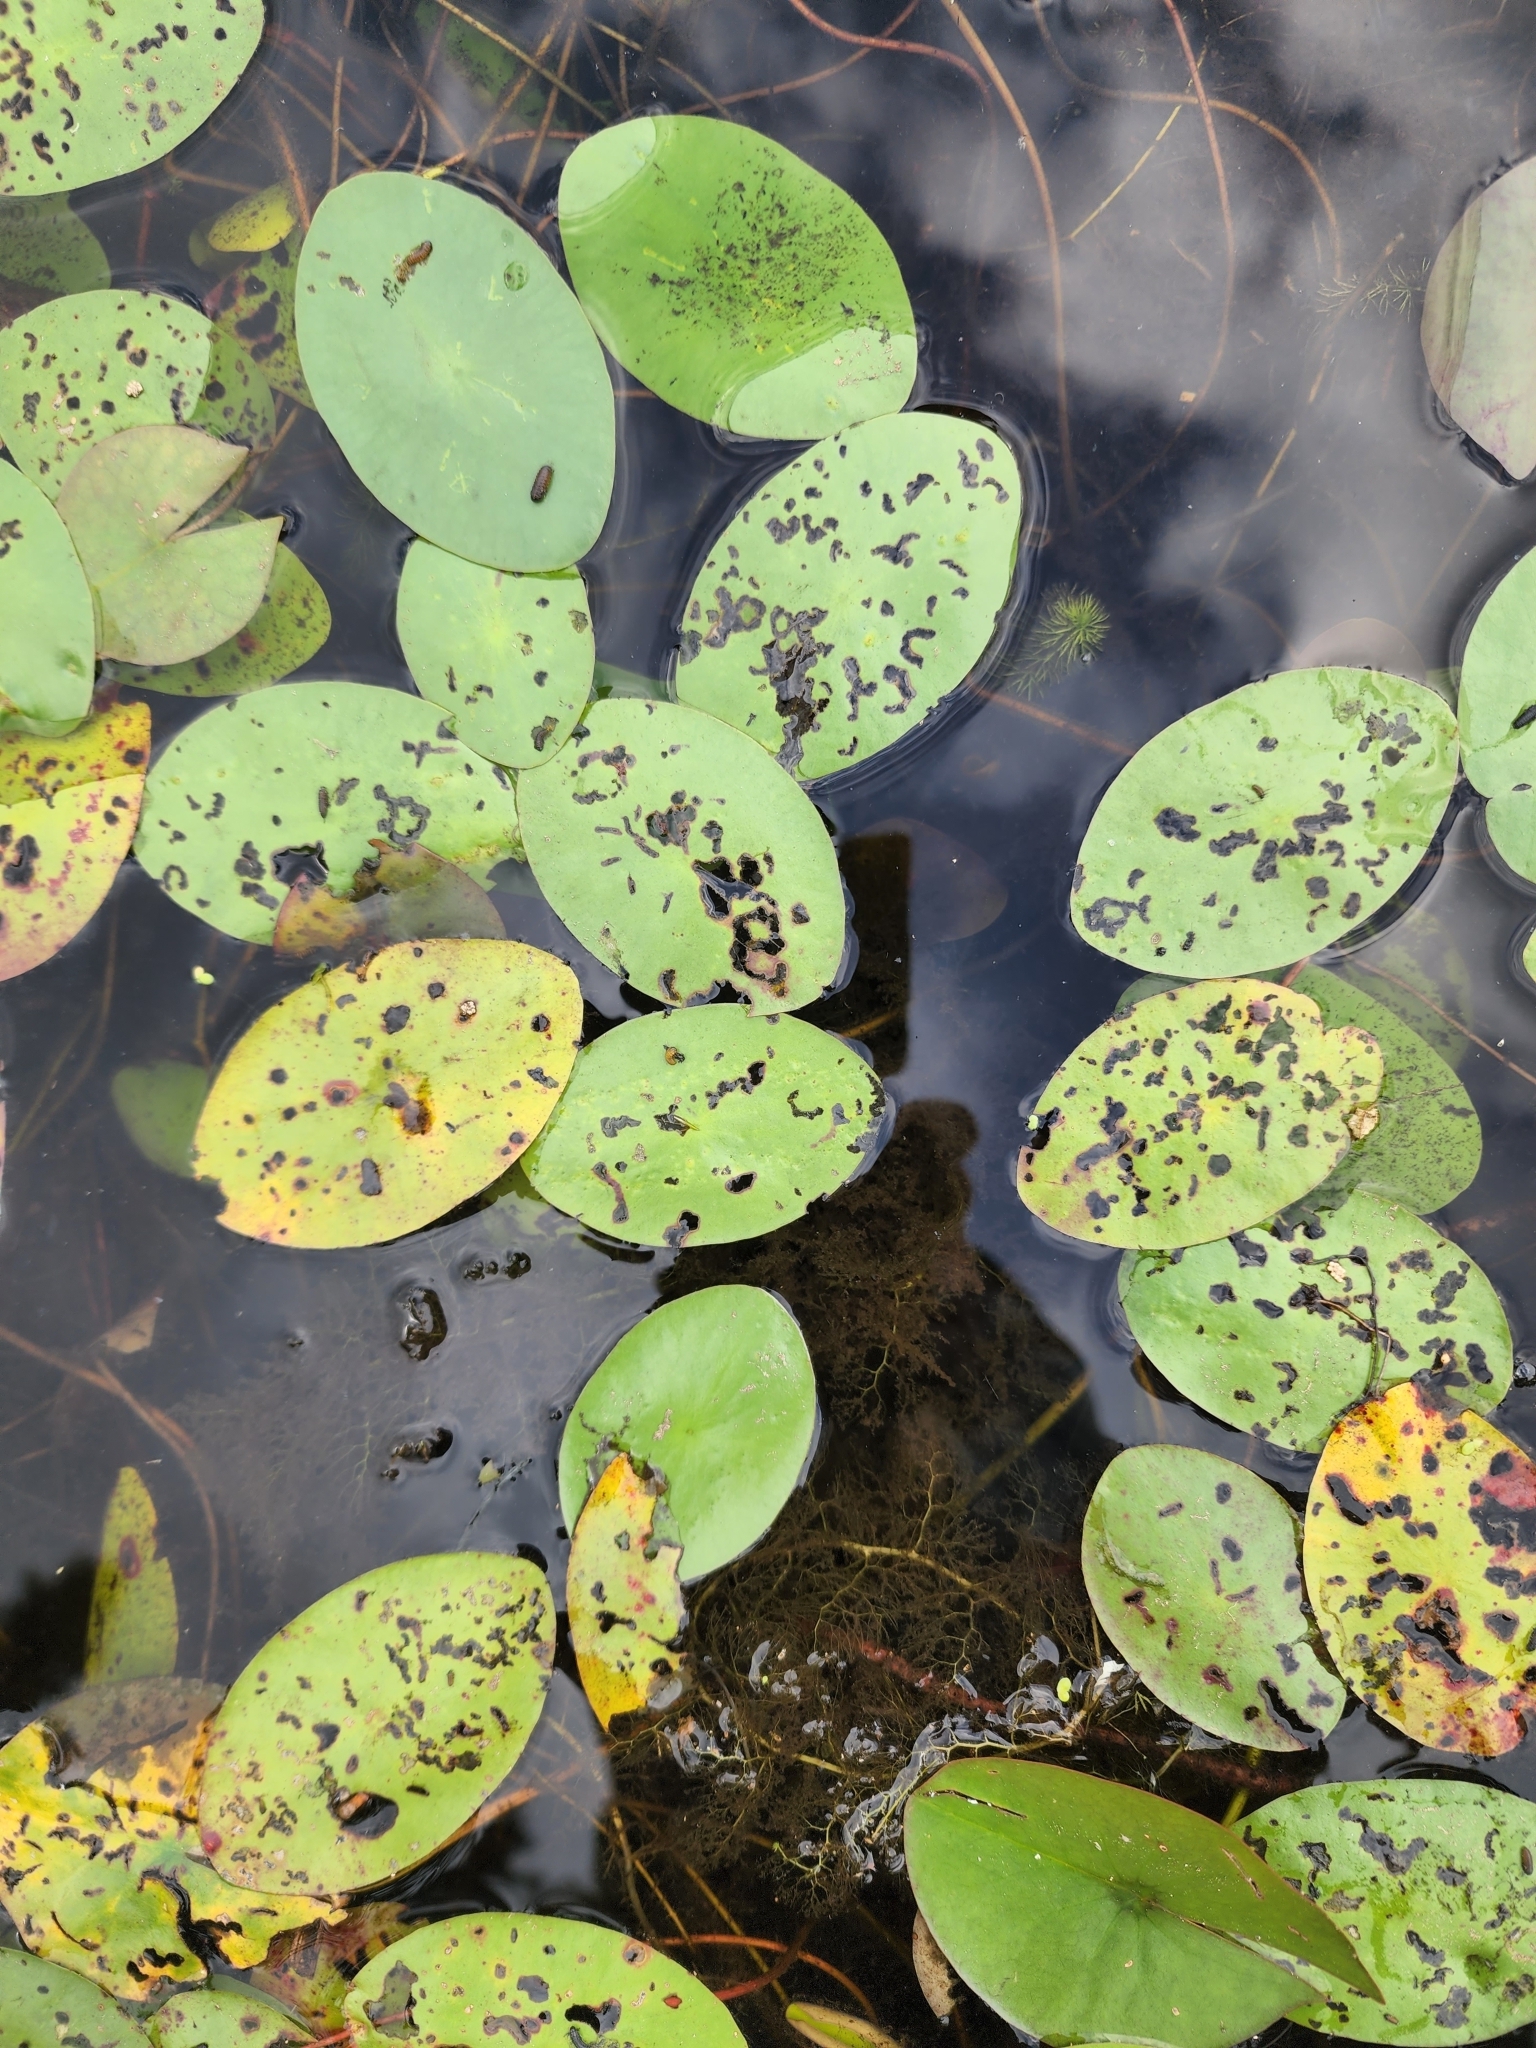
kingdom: Plantae
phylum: Tracheophyta
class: Magnoliopsida
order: Nymphaeales
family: Cabombaceae
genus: Brasenia
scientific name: Brasenia schreberi
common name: Water-shield
